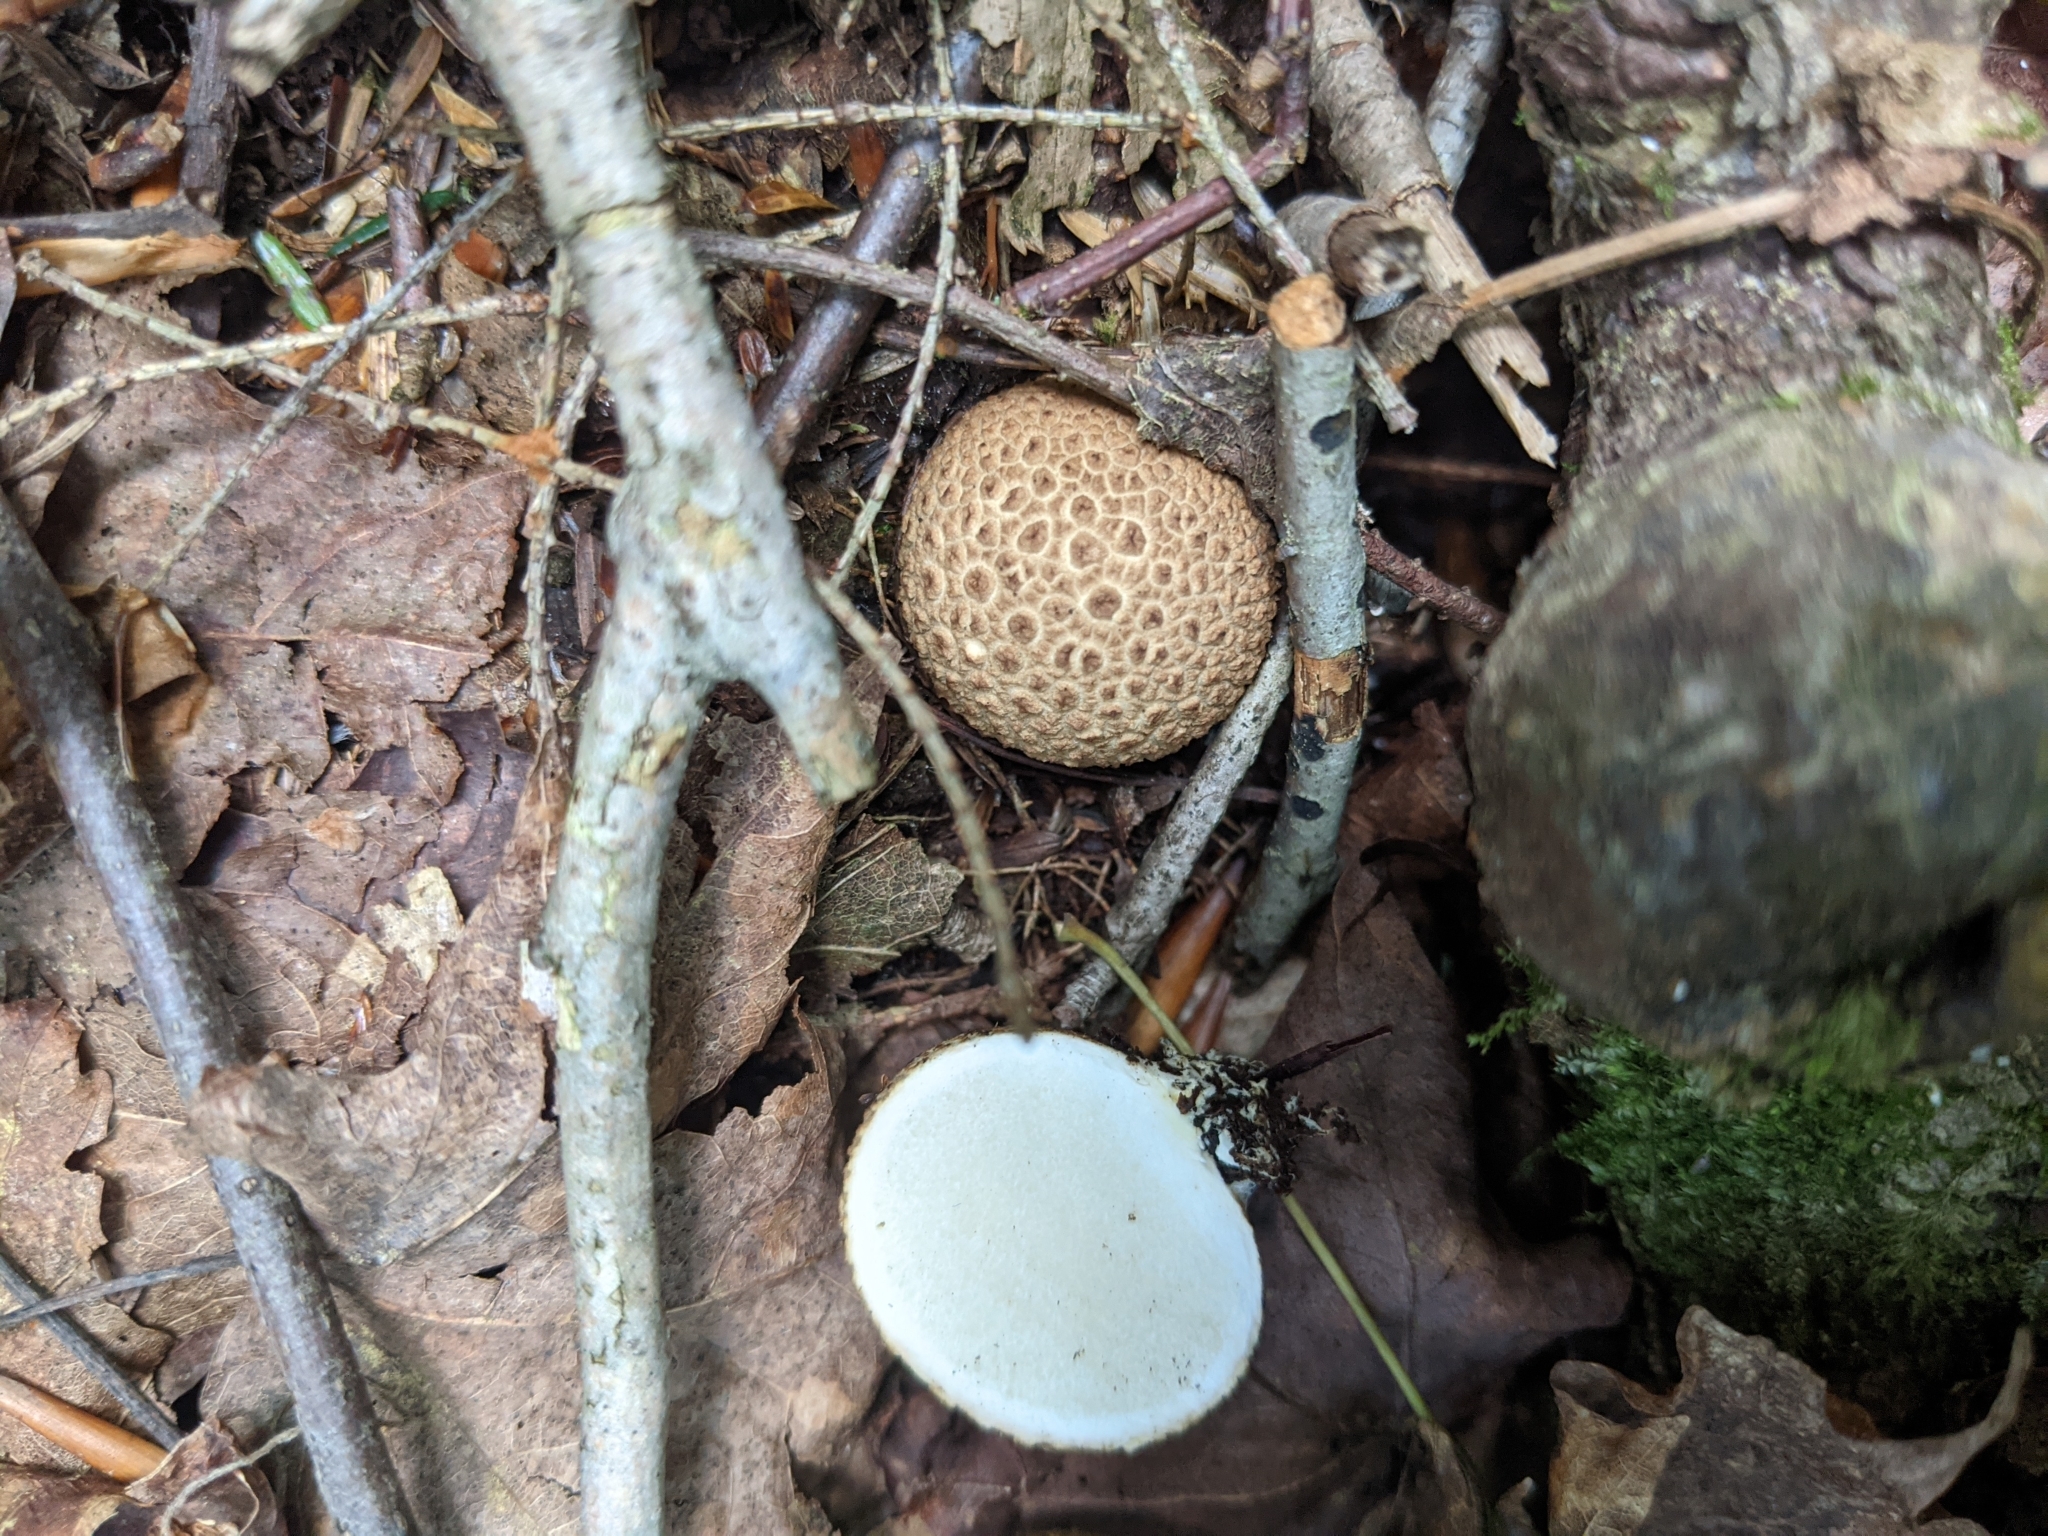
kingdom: Fungi
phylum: Basidiomycota
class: Agaricomycetes
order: Boletales
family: Sclerodermataceae
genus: Scleroderma
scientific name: Scleroderma citrinum
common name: Common earthball
